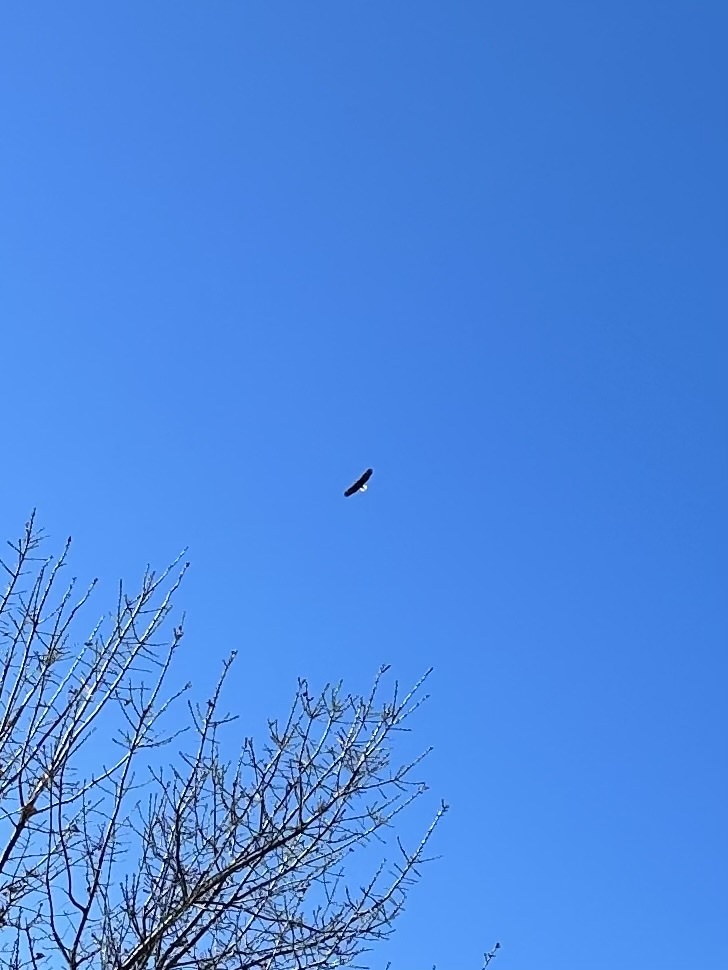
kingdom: Animalia
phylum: Chordata
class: Aves
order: Accipitriformes
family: Accipitridae
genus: Haliaeetus
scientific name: Haliaeetus leucocephalus
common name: Bald eagle
